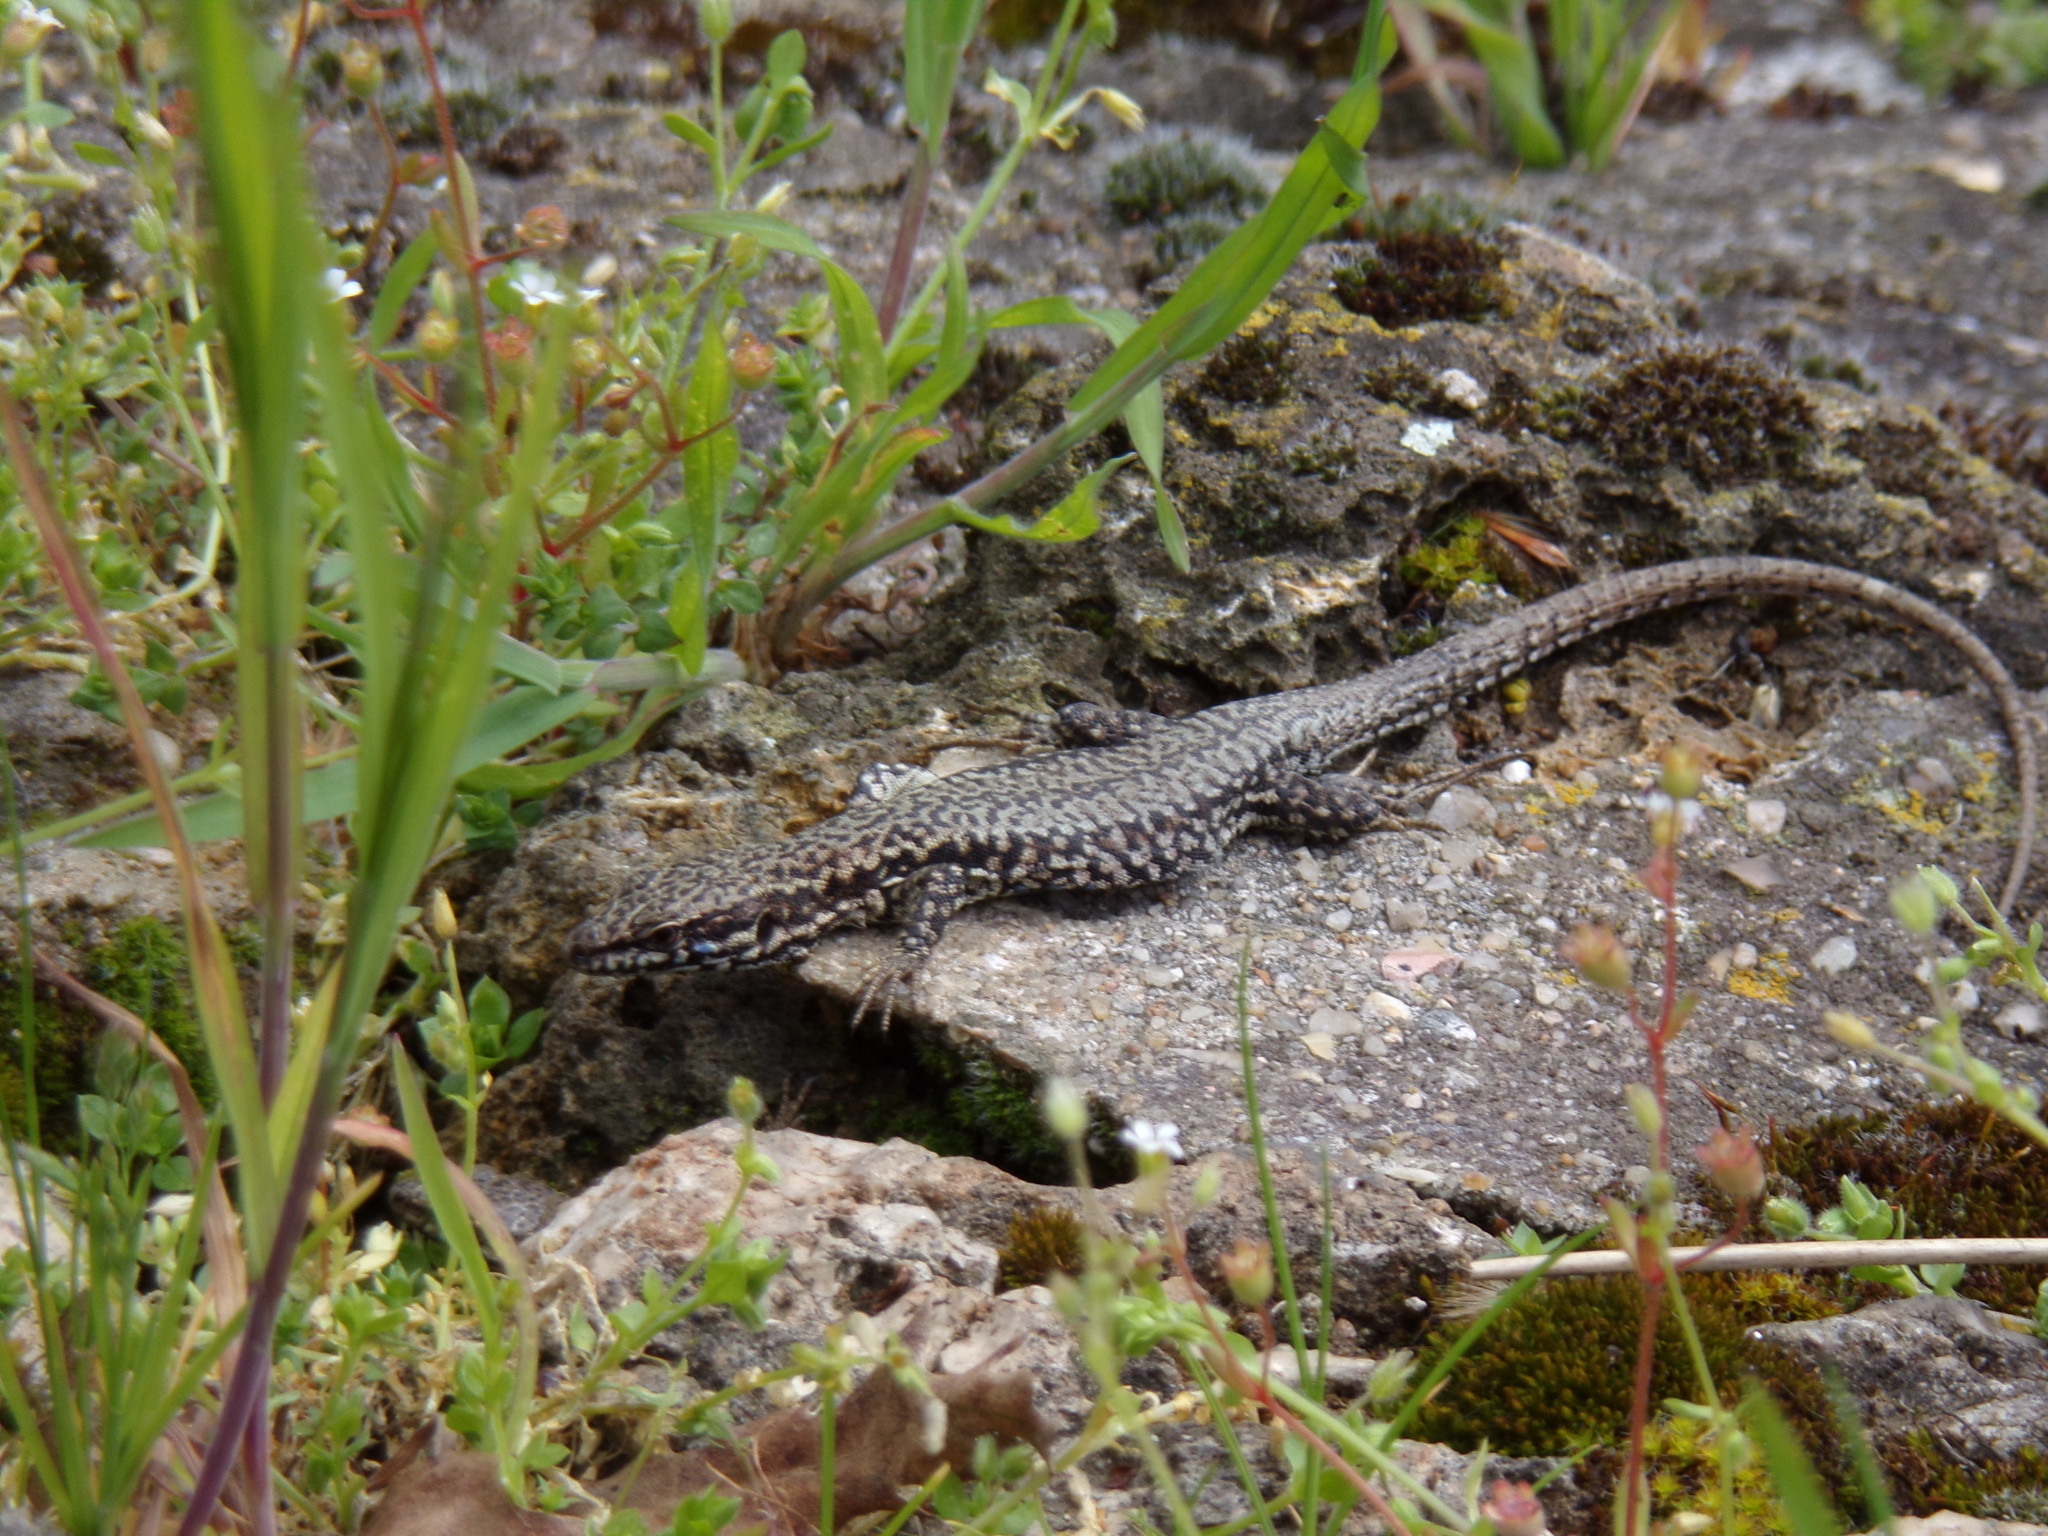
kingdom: Animalia
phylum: Chordata
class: Squamata
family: Lacertidae
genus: Podarcis
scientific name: Podarcis muralis
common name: Common wall lizard
